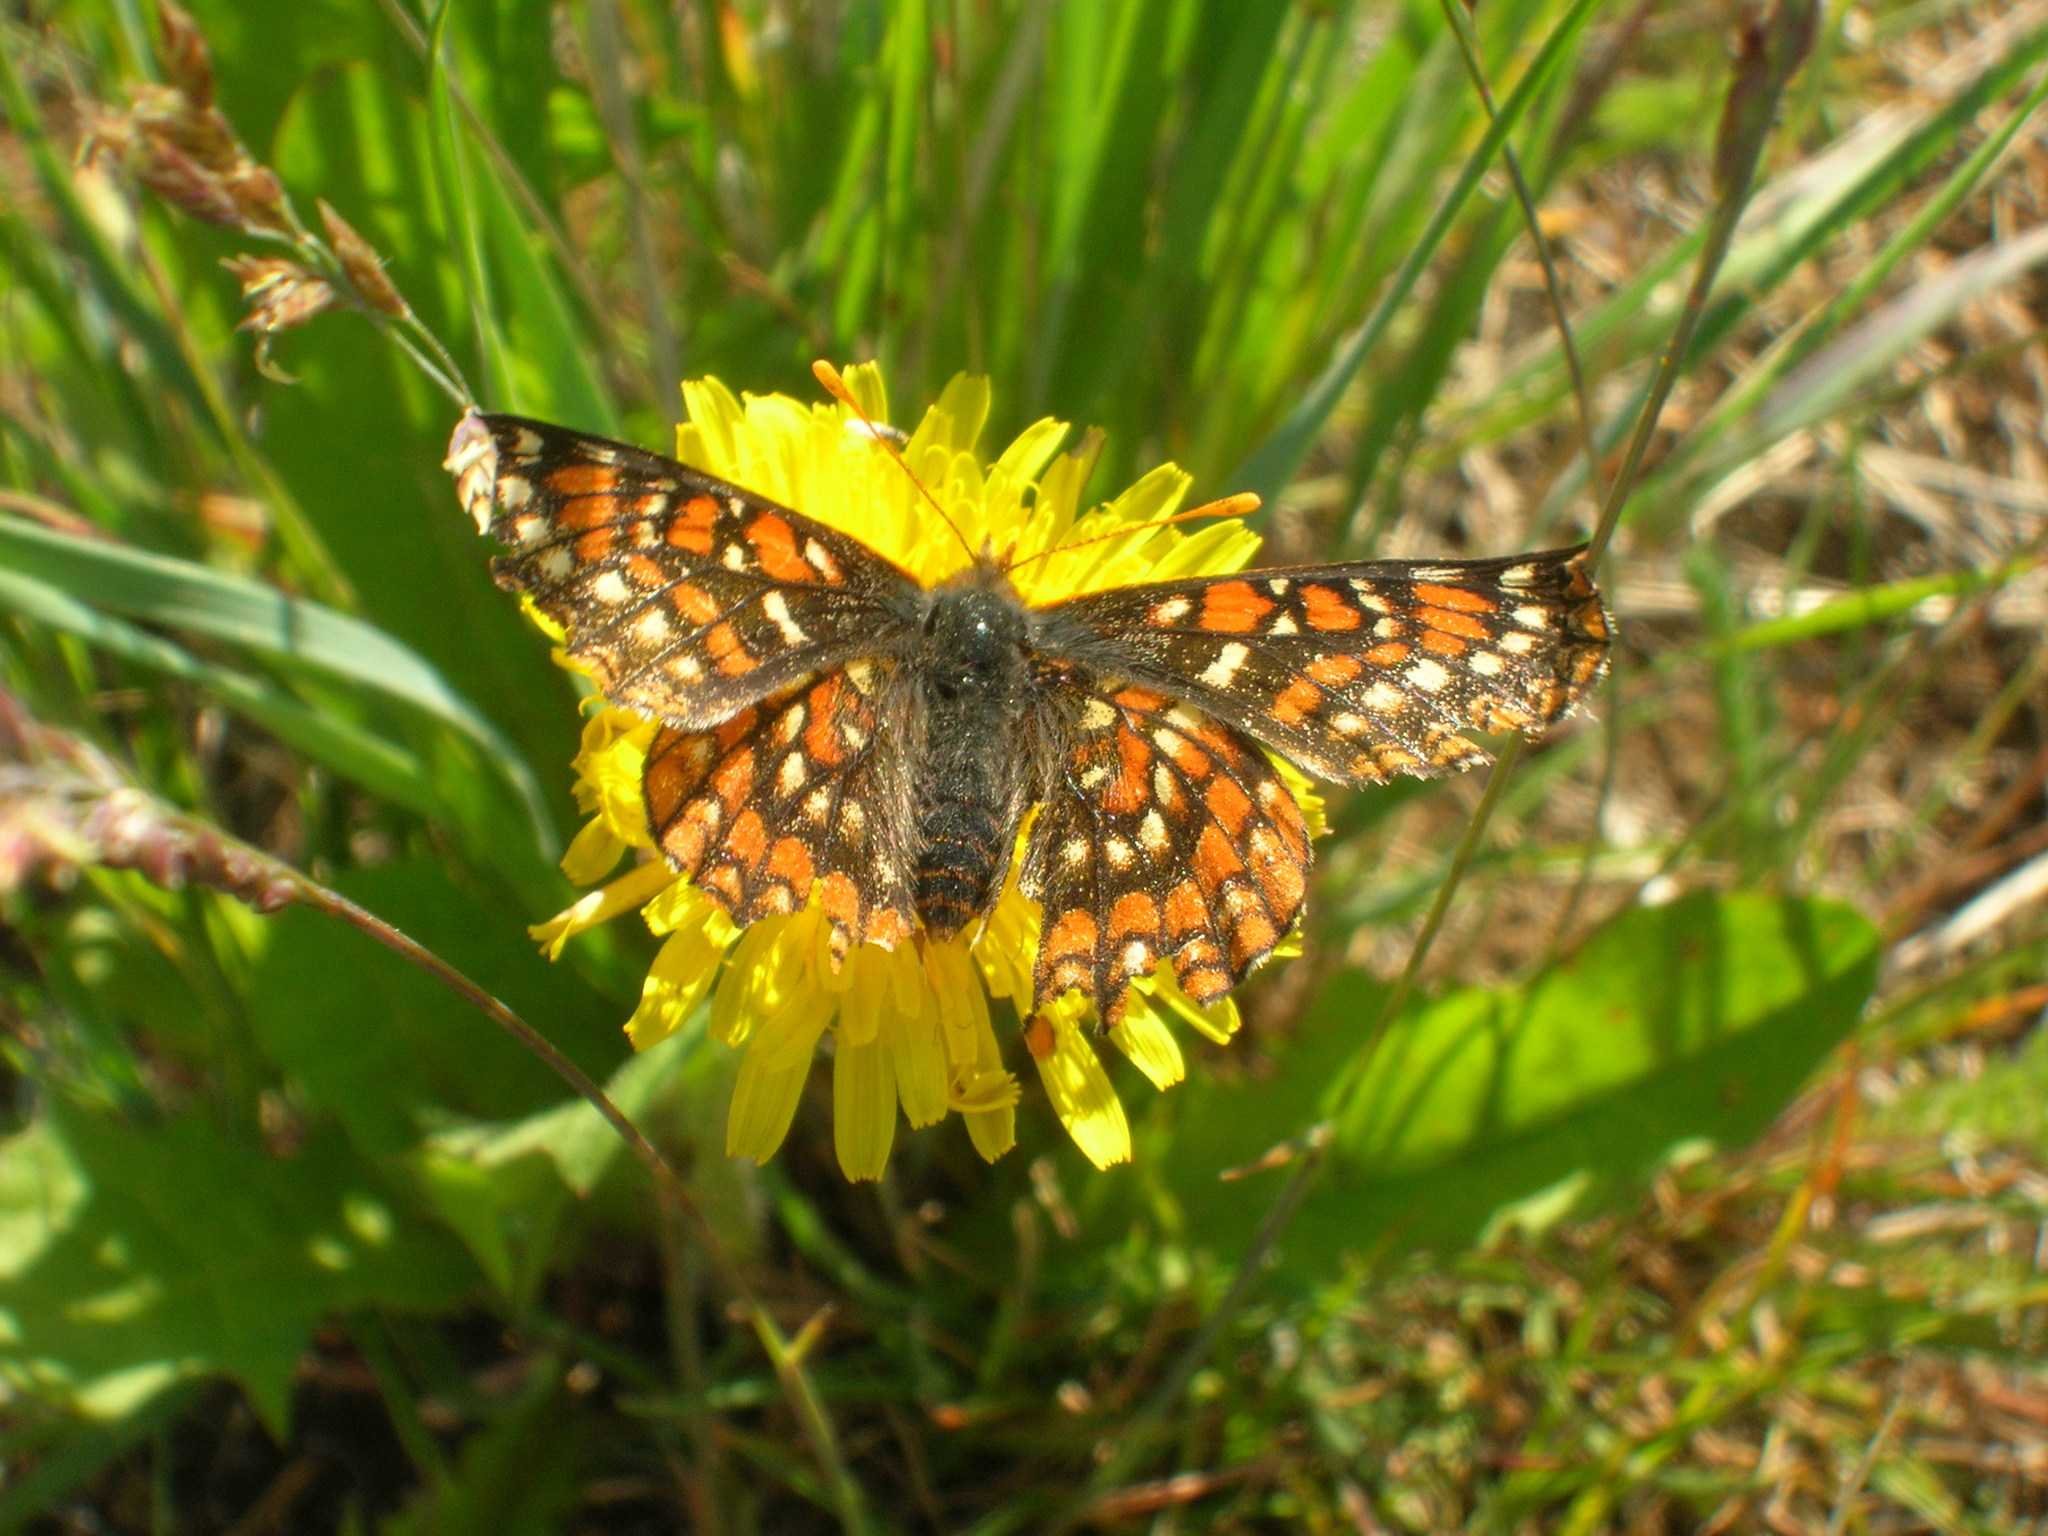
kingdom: Animalia
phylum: Arthropoda
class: Insecta
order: Lepidoptera
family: Nymphalidae
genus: Occidryas
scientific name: Occidryas editha
